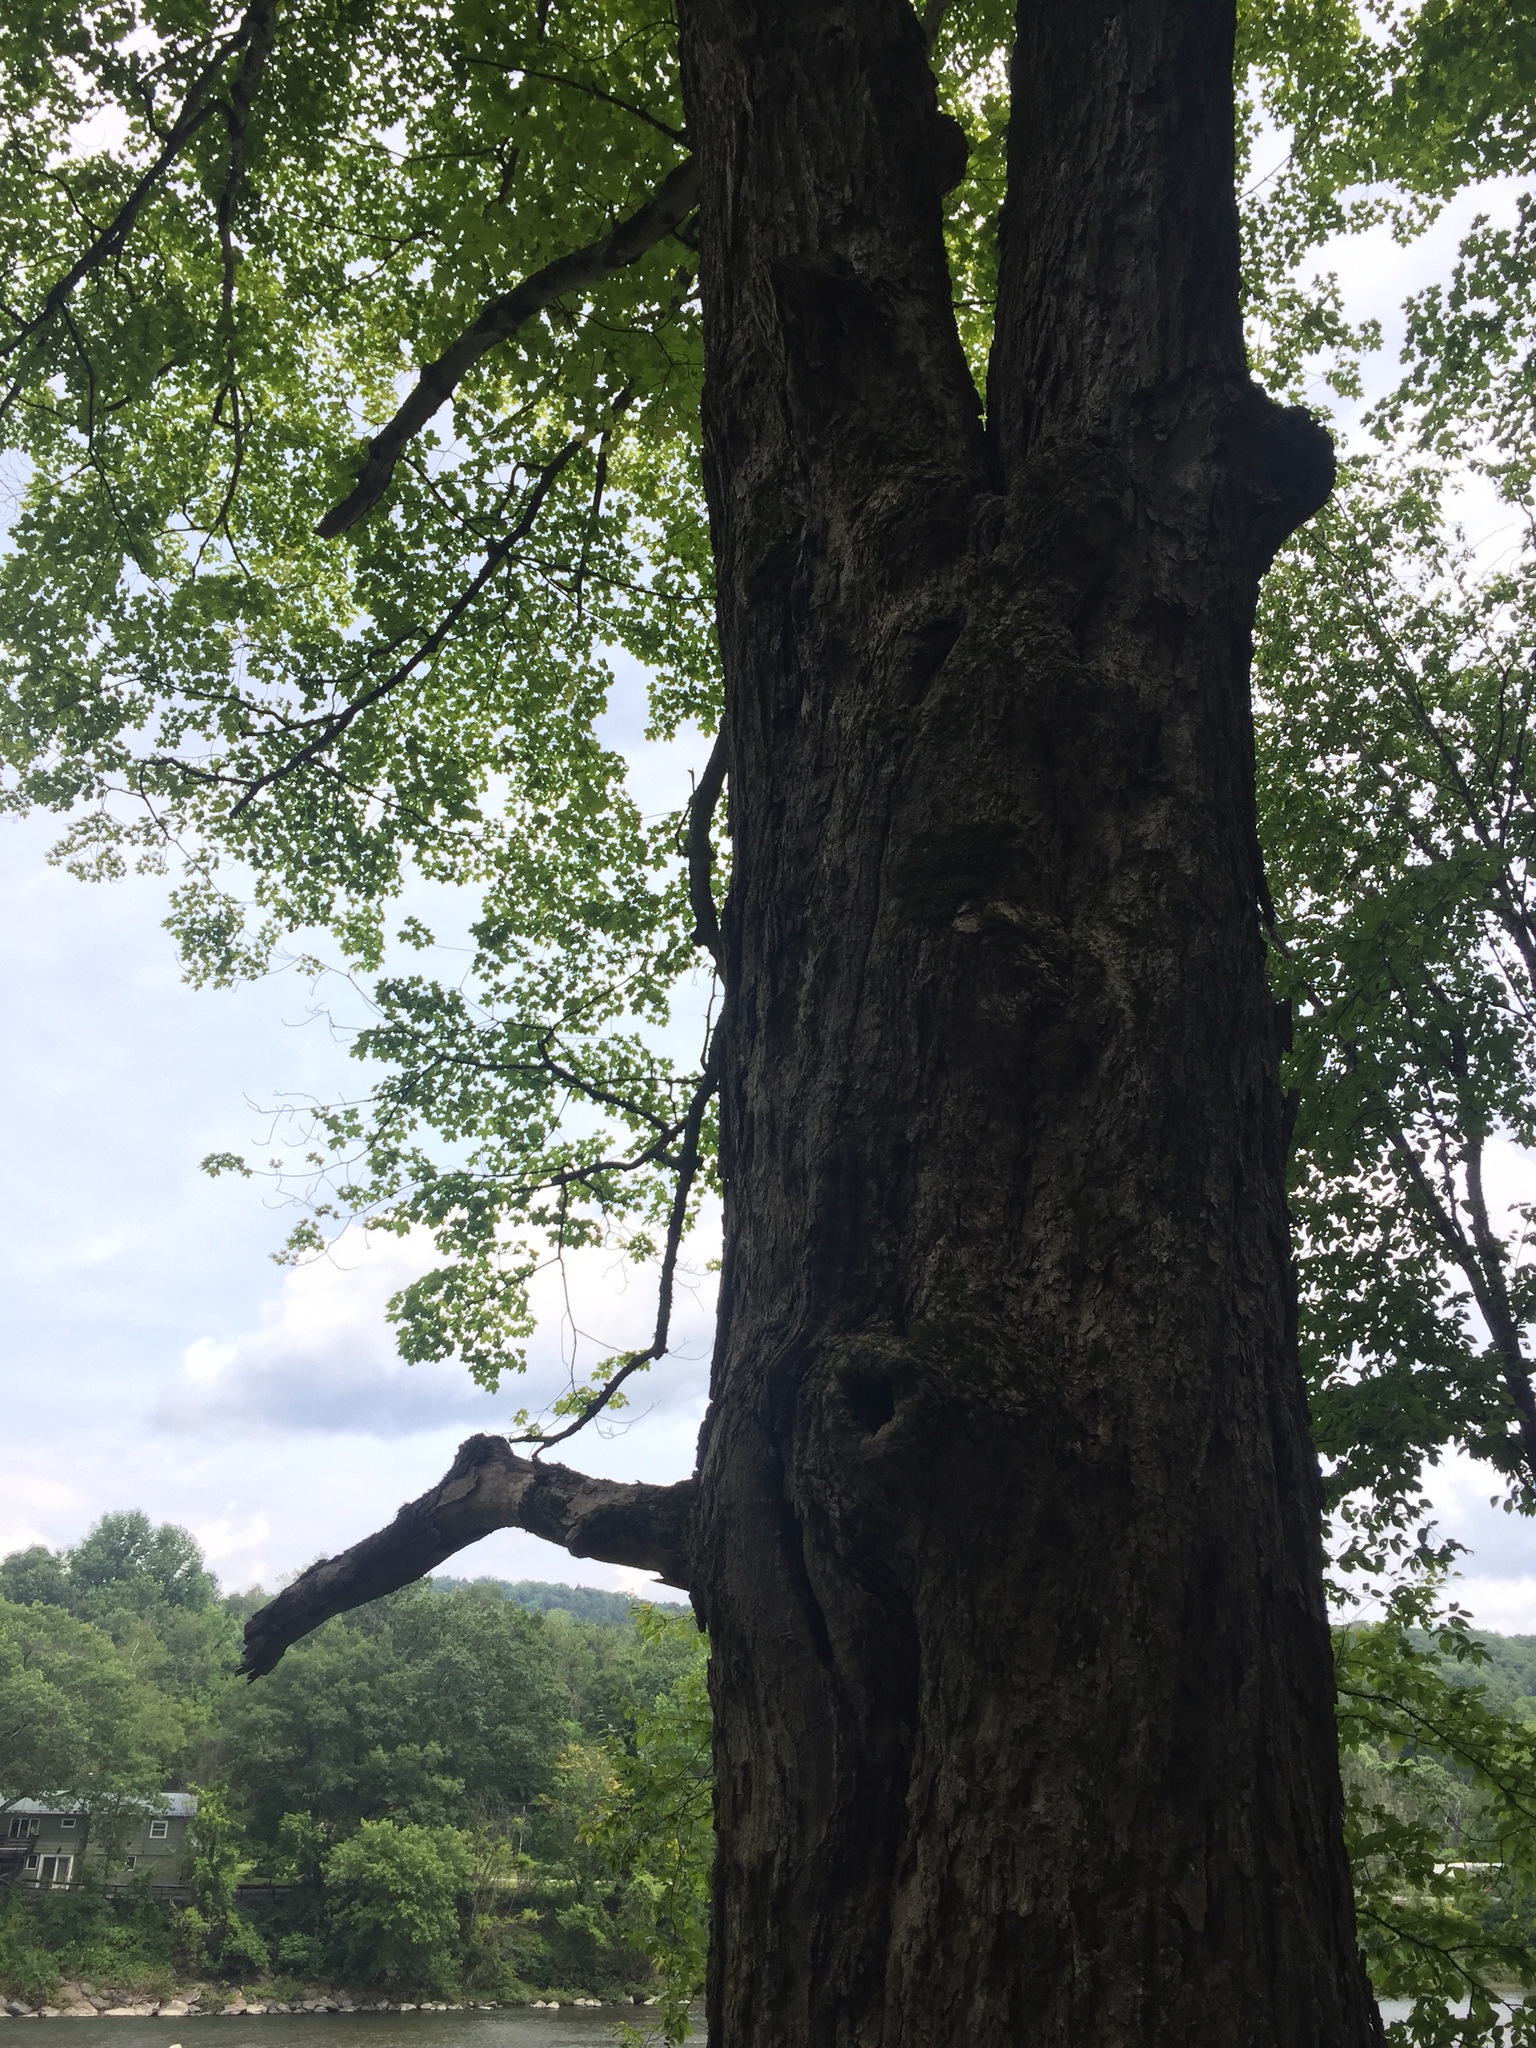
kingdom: Plantae
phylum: Tracheophyta
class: Magnoliopsida
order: Sapindales
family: Sapindaceae
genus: Acer
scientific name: Acer saccharum
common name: Sugar maple
